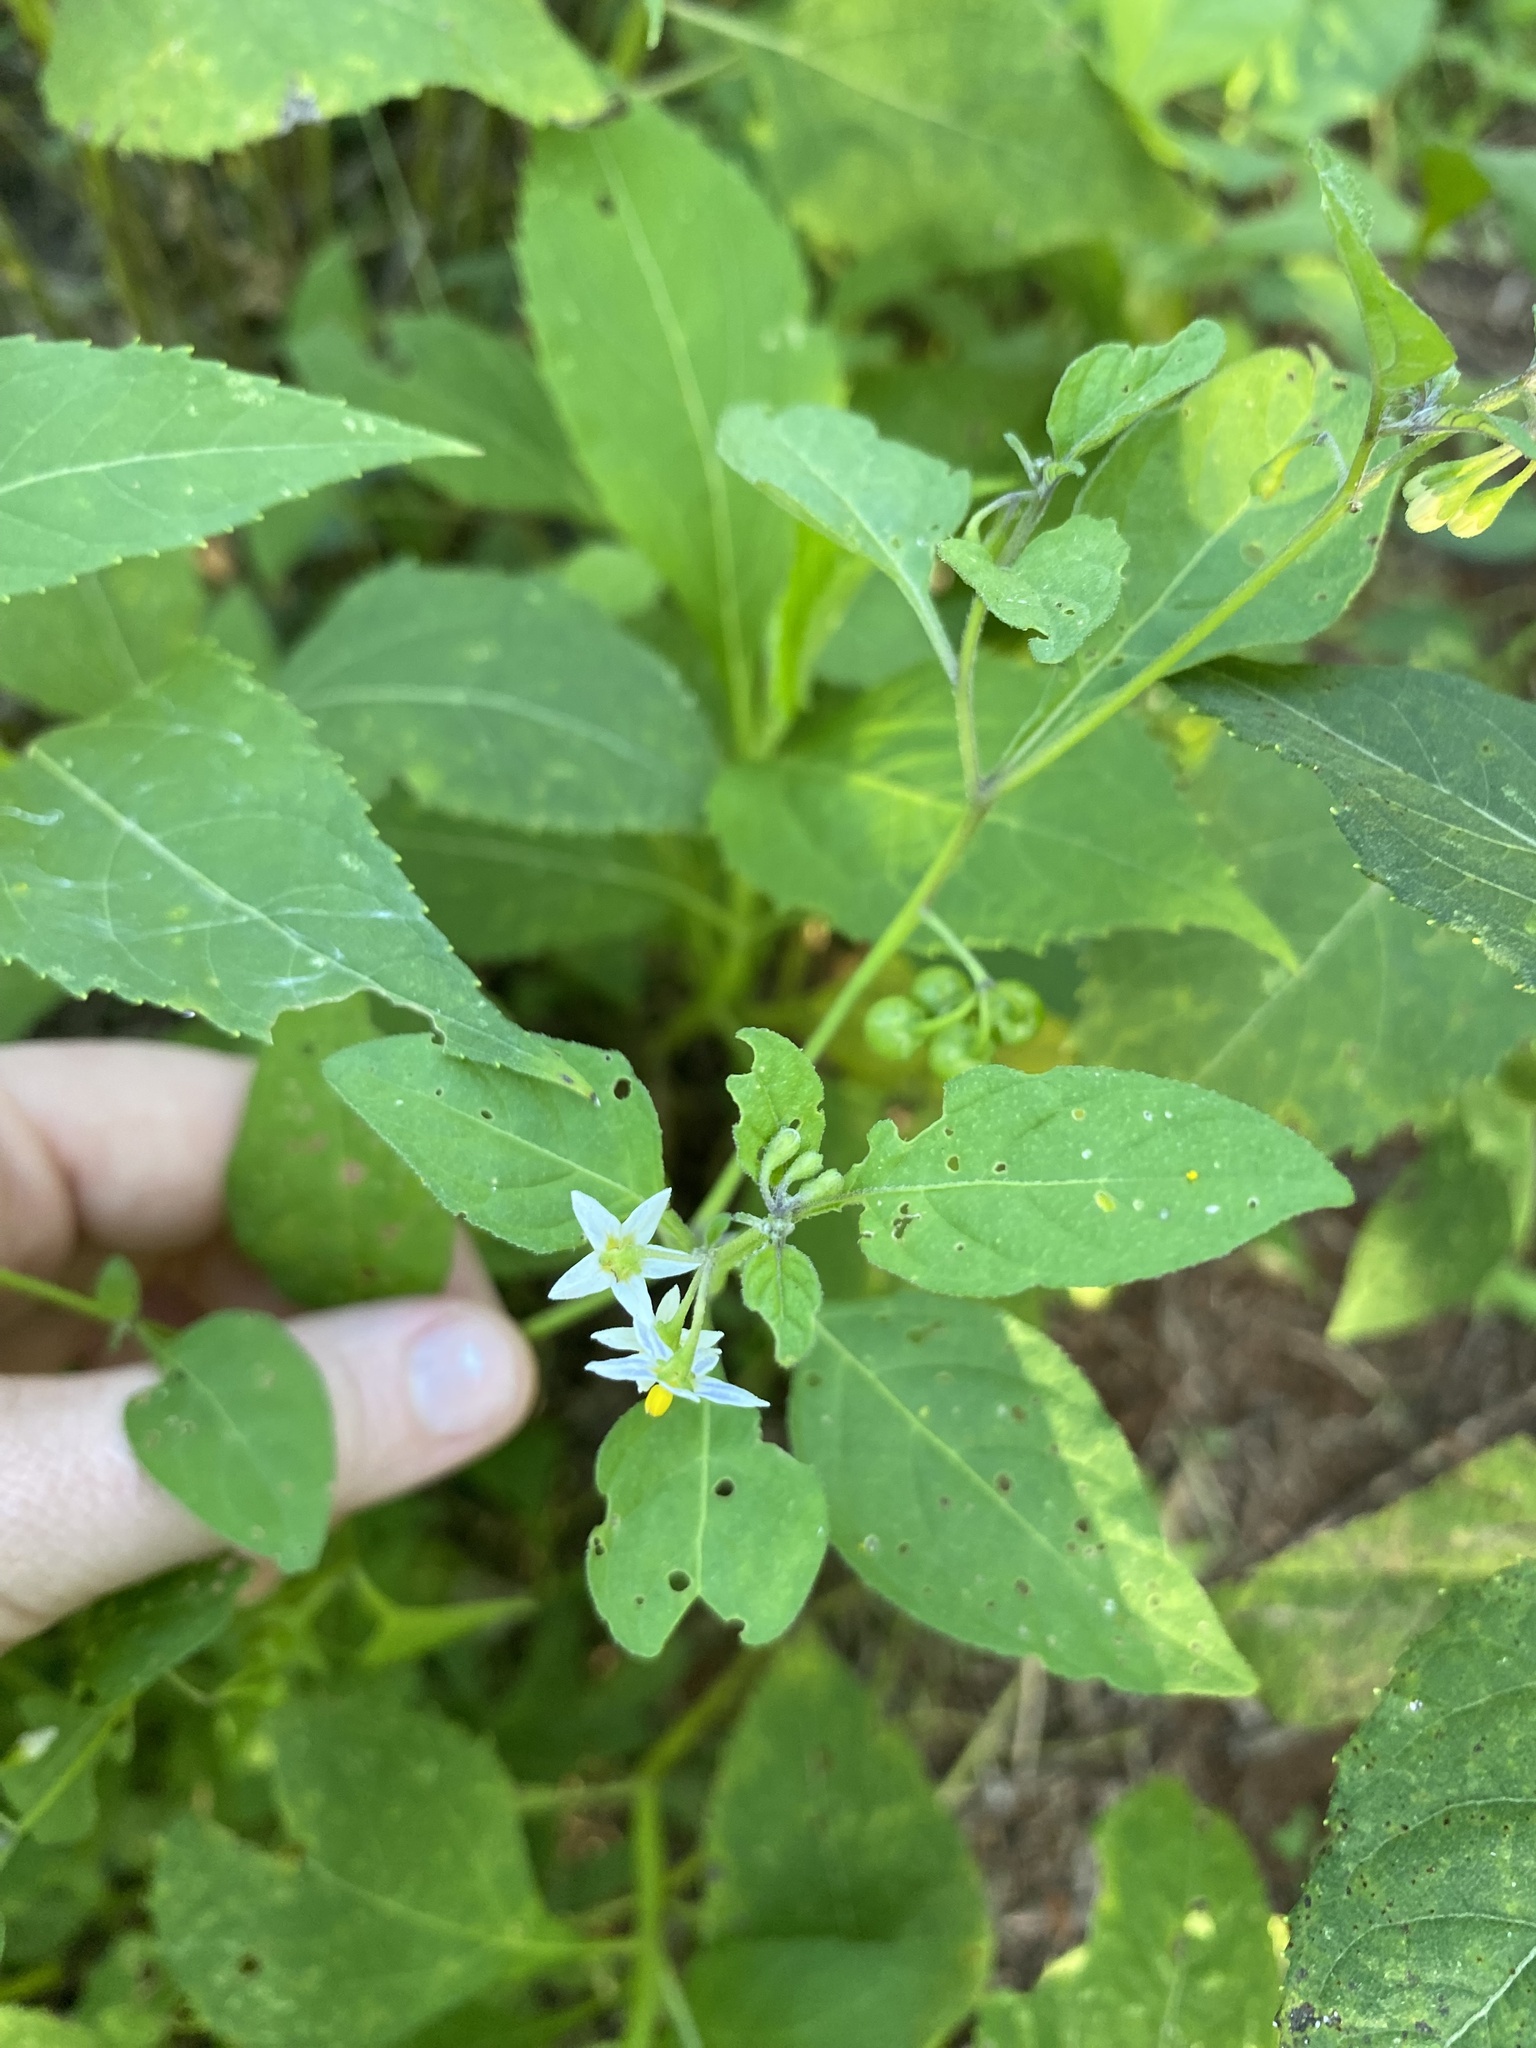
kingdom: Plantae
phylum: Tracheophyta
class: Magnoliopsida
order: Solanales
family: Solanaceae
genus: Solanum
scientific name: Solanum emulans
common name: Eastern black nightshade
